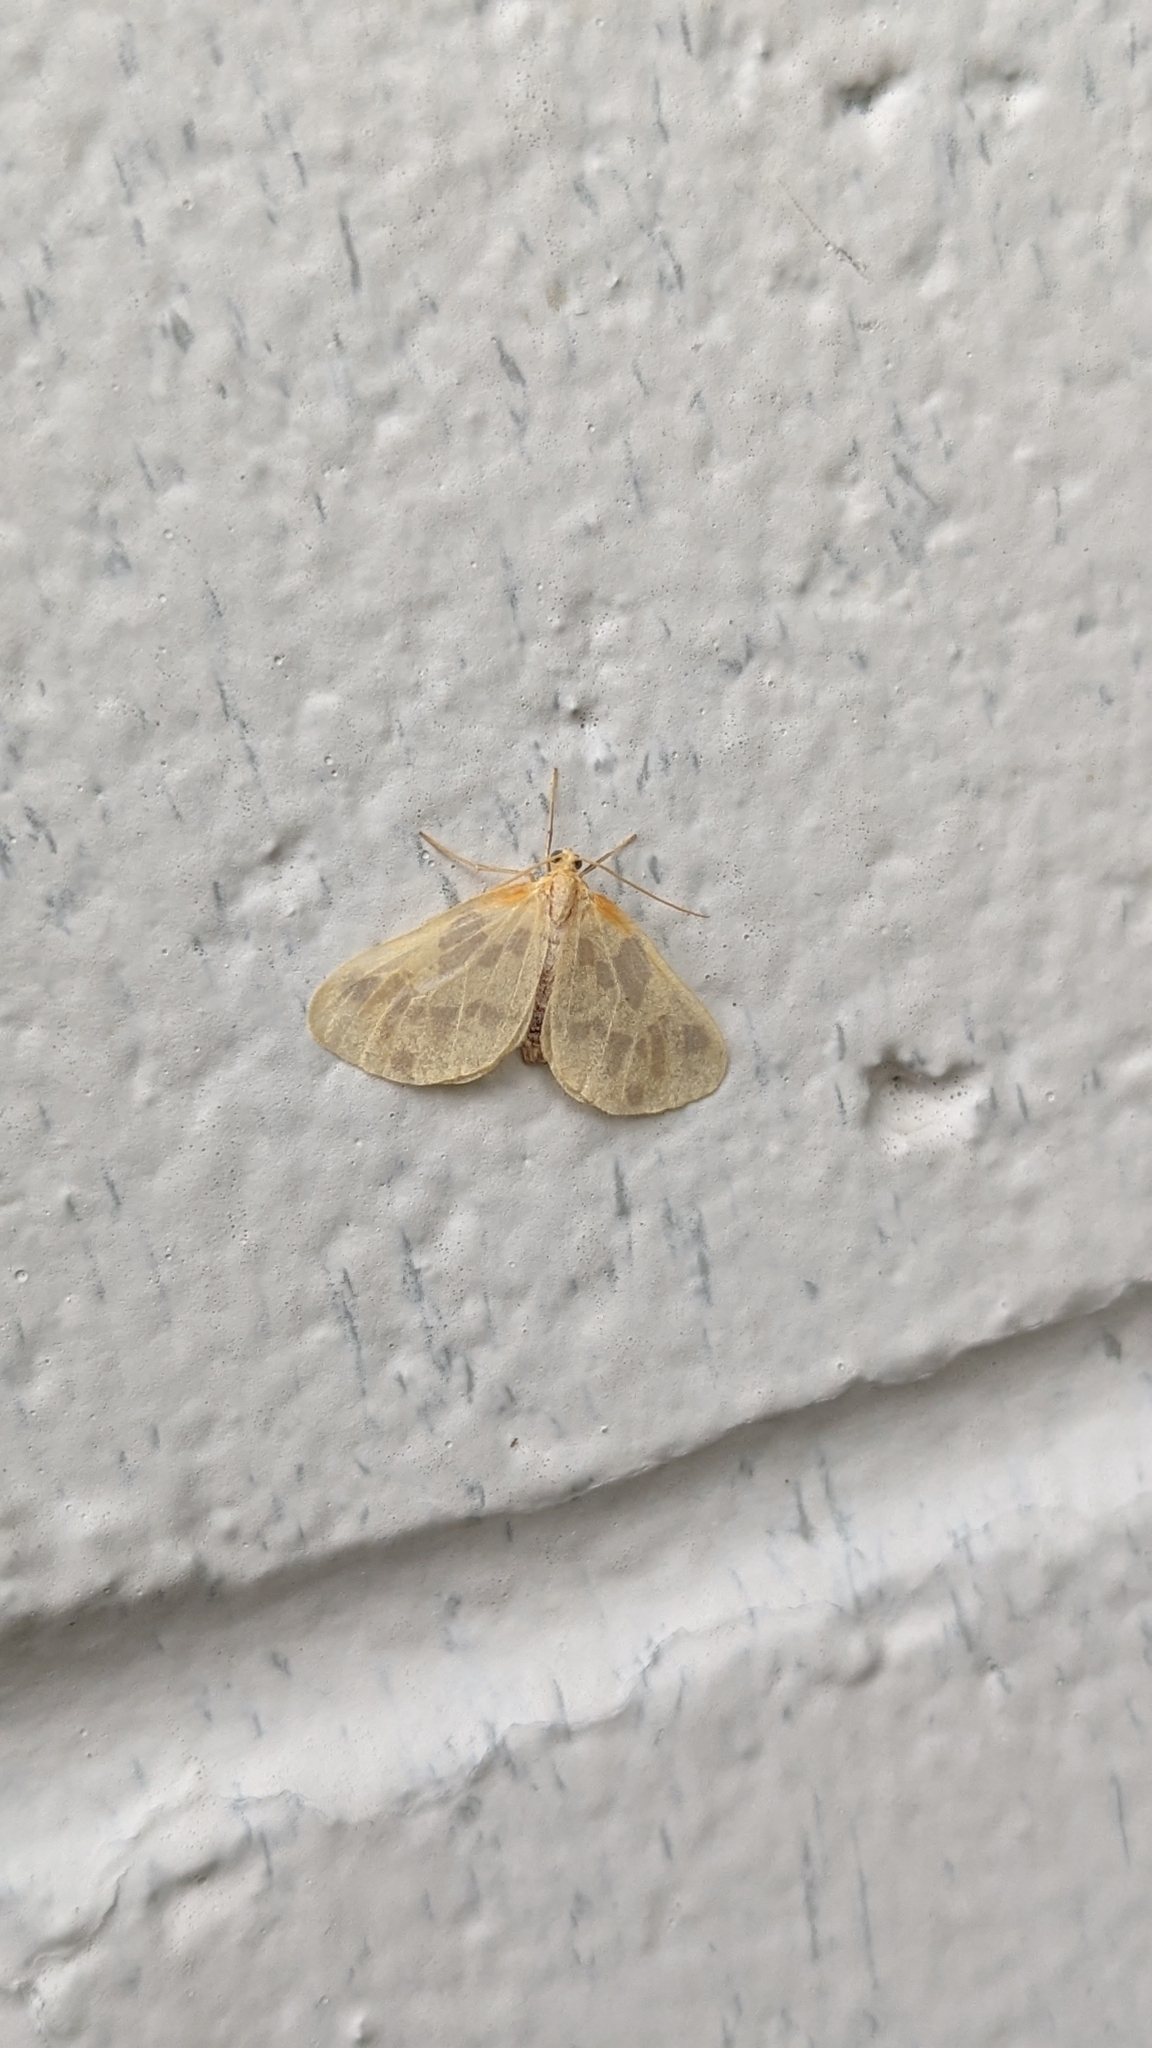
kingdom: Animalia
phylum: Arthropoda
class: Insecta
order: Lepidoptera
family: Geometridae
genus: Eubaphe
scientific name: Eubaphe mendica
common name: Beggar
